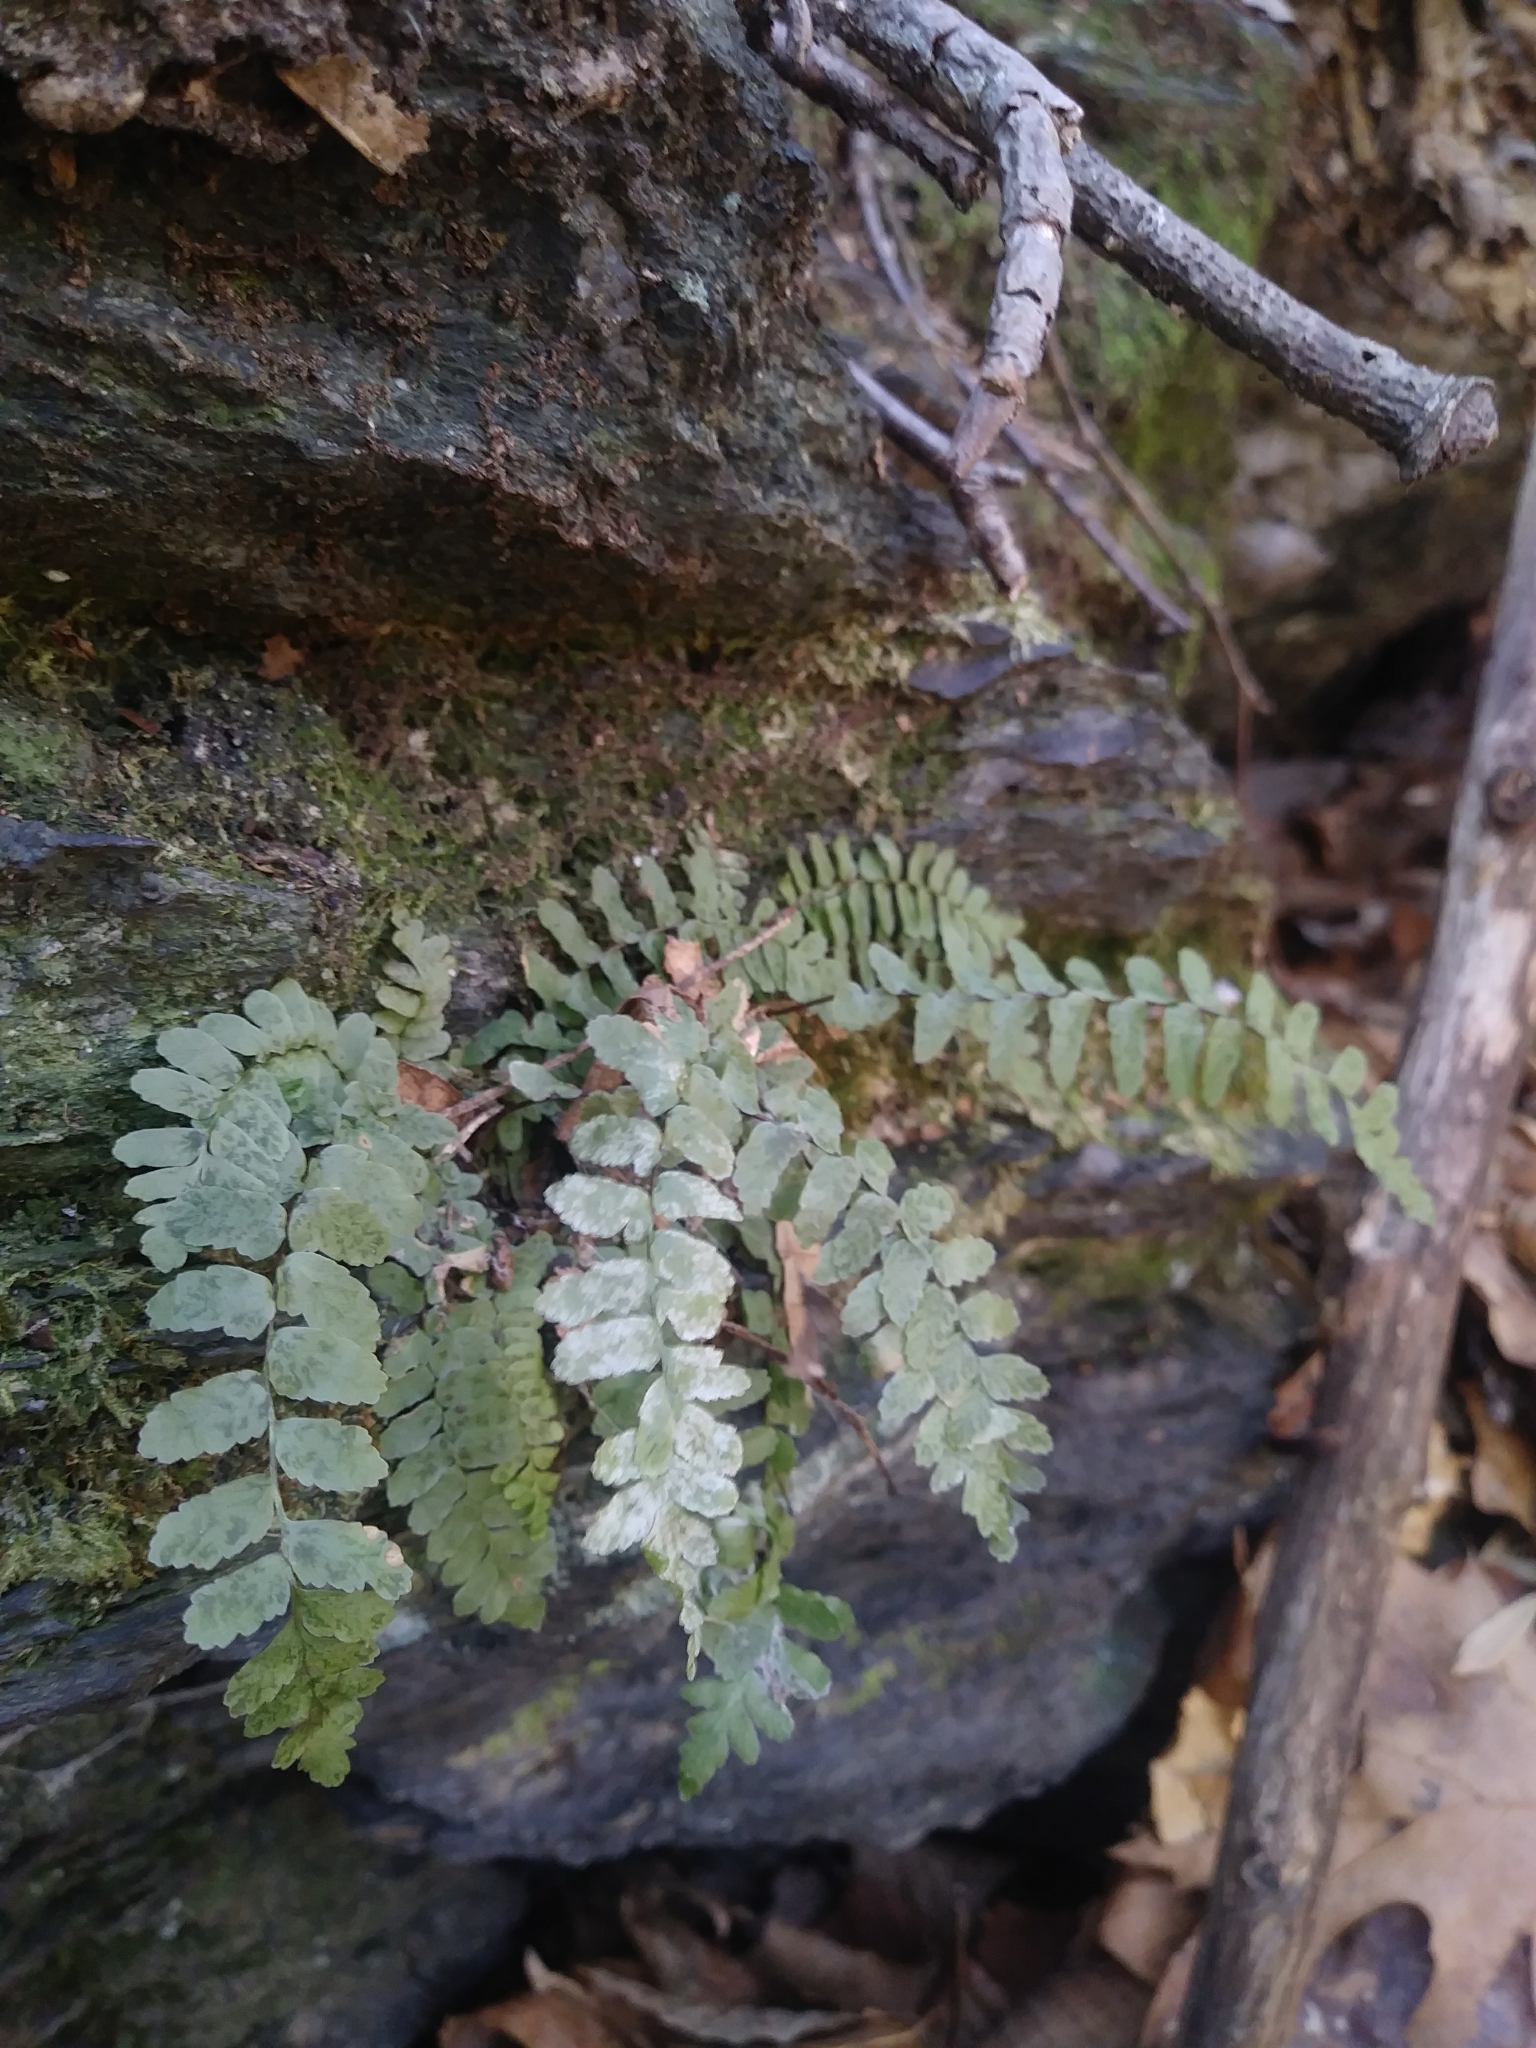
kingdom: Plantae
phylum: Tracheophyta
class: Polypodiopsida
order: Polypodiales
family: Aspleniaceae
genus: Asplenium
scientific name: Asplenium platyneuron
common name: Ebony spleenwort
